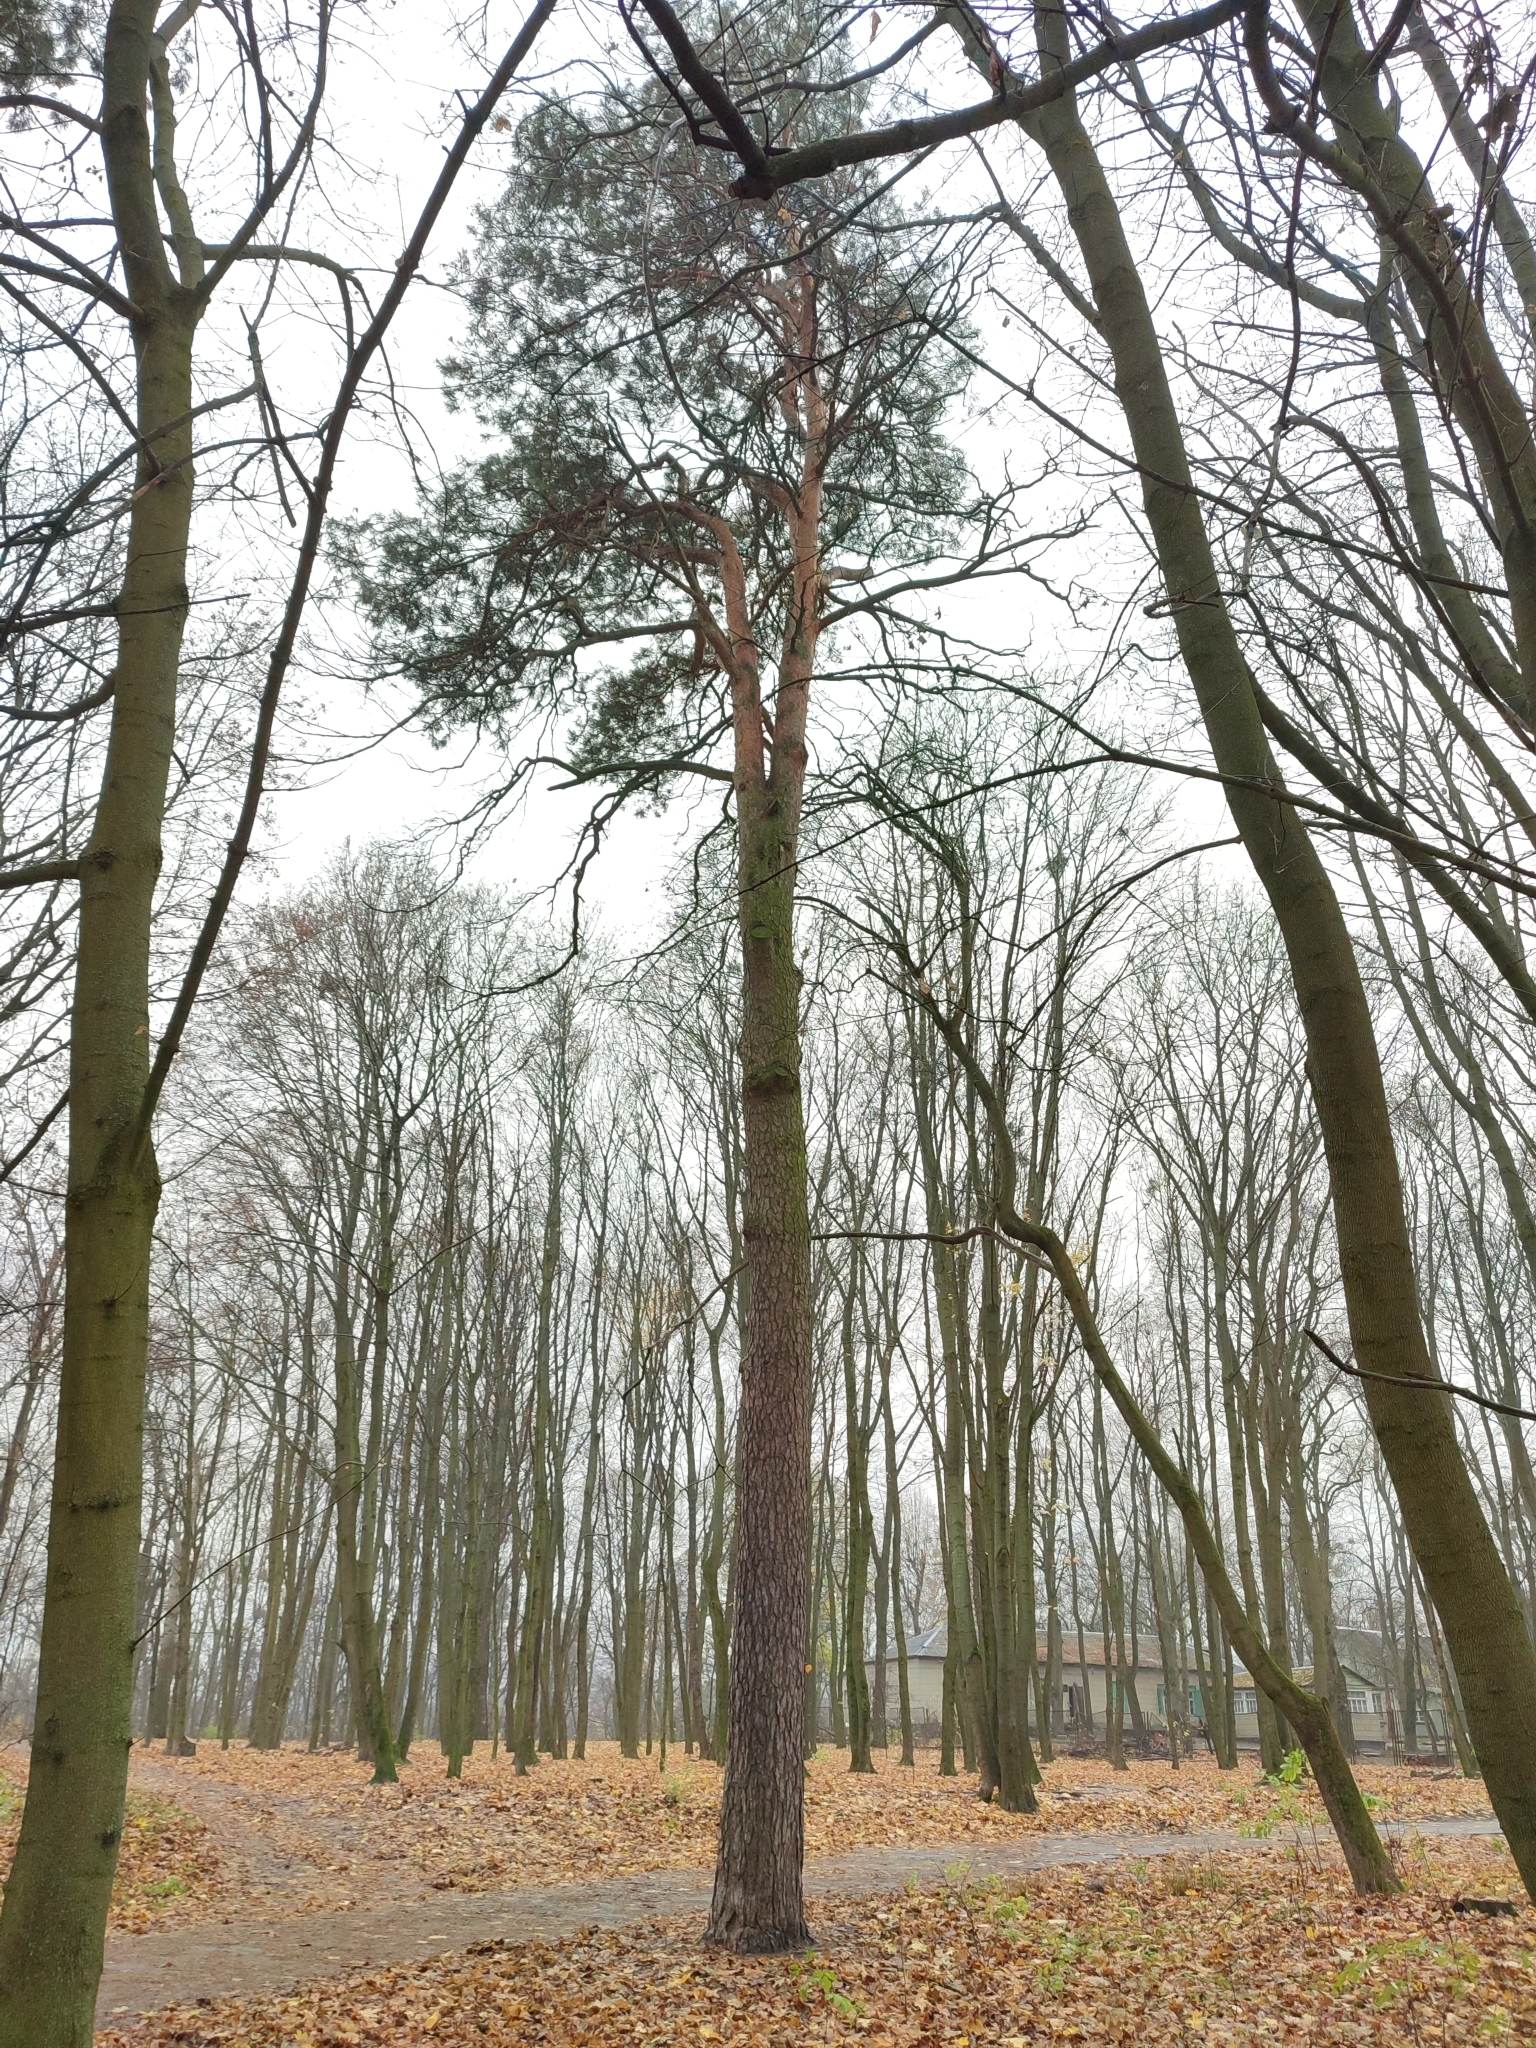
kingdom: Plantae
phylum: Tracheophyta
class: Pinopsida
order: Pinales
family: Pinaceae
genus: Pinus
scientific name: Pinus sylvestris
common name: Scots pine
